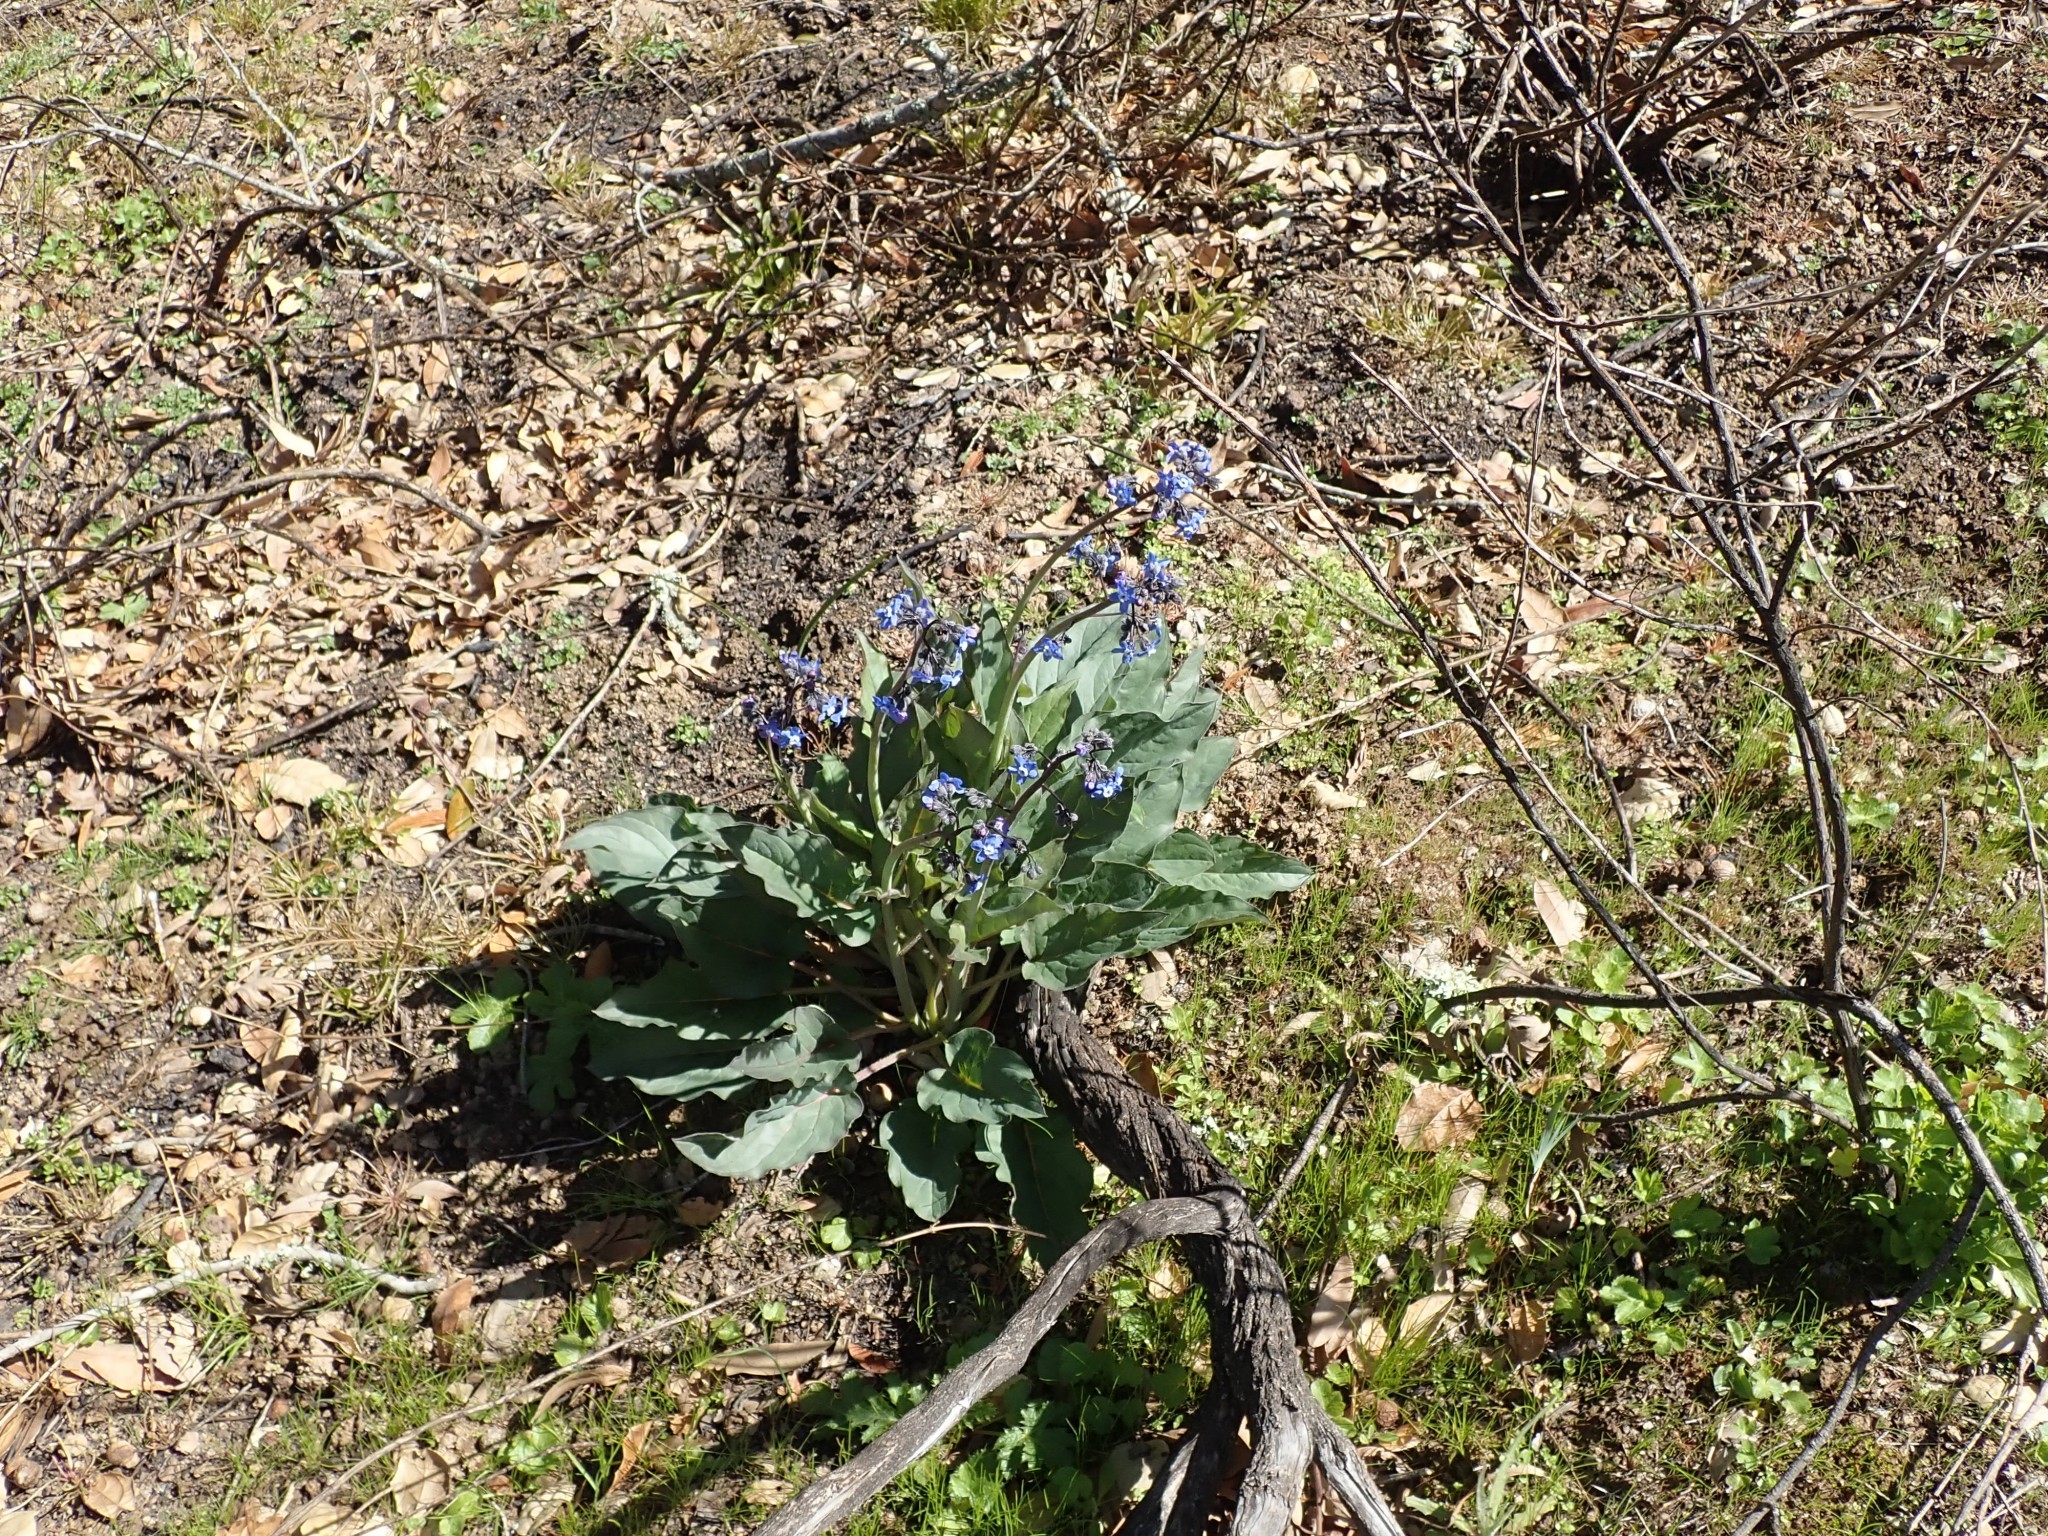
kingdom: Plantae
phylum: Tracheophyta
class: Magnoliopsida
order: Boraginales
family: Boraginaceae
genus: Adelinia
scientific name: Adelinia grande
